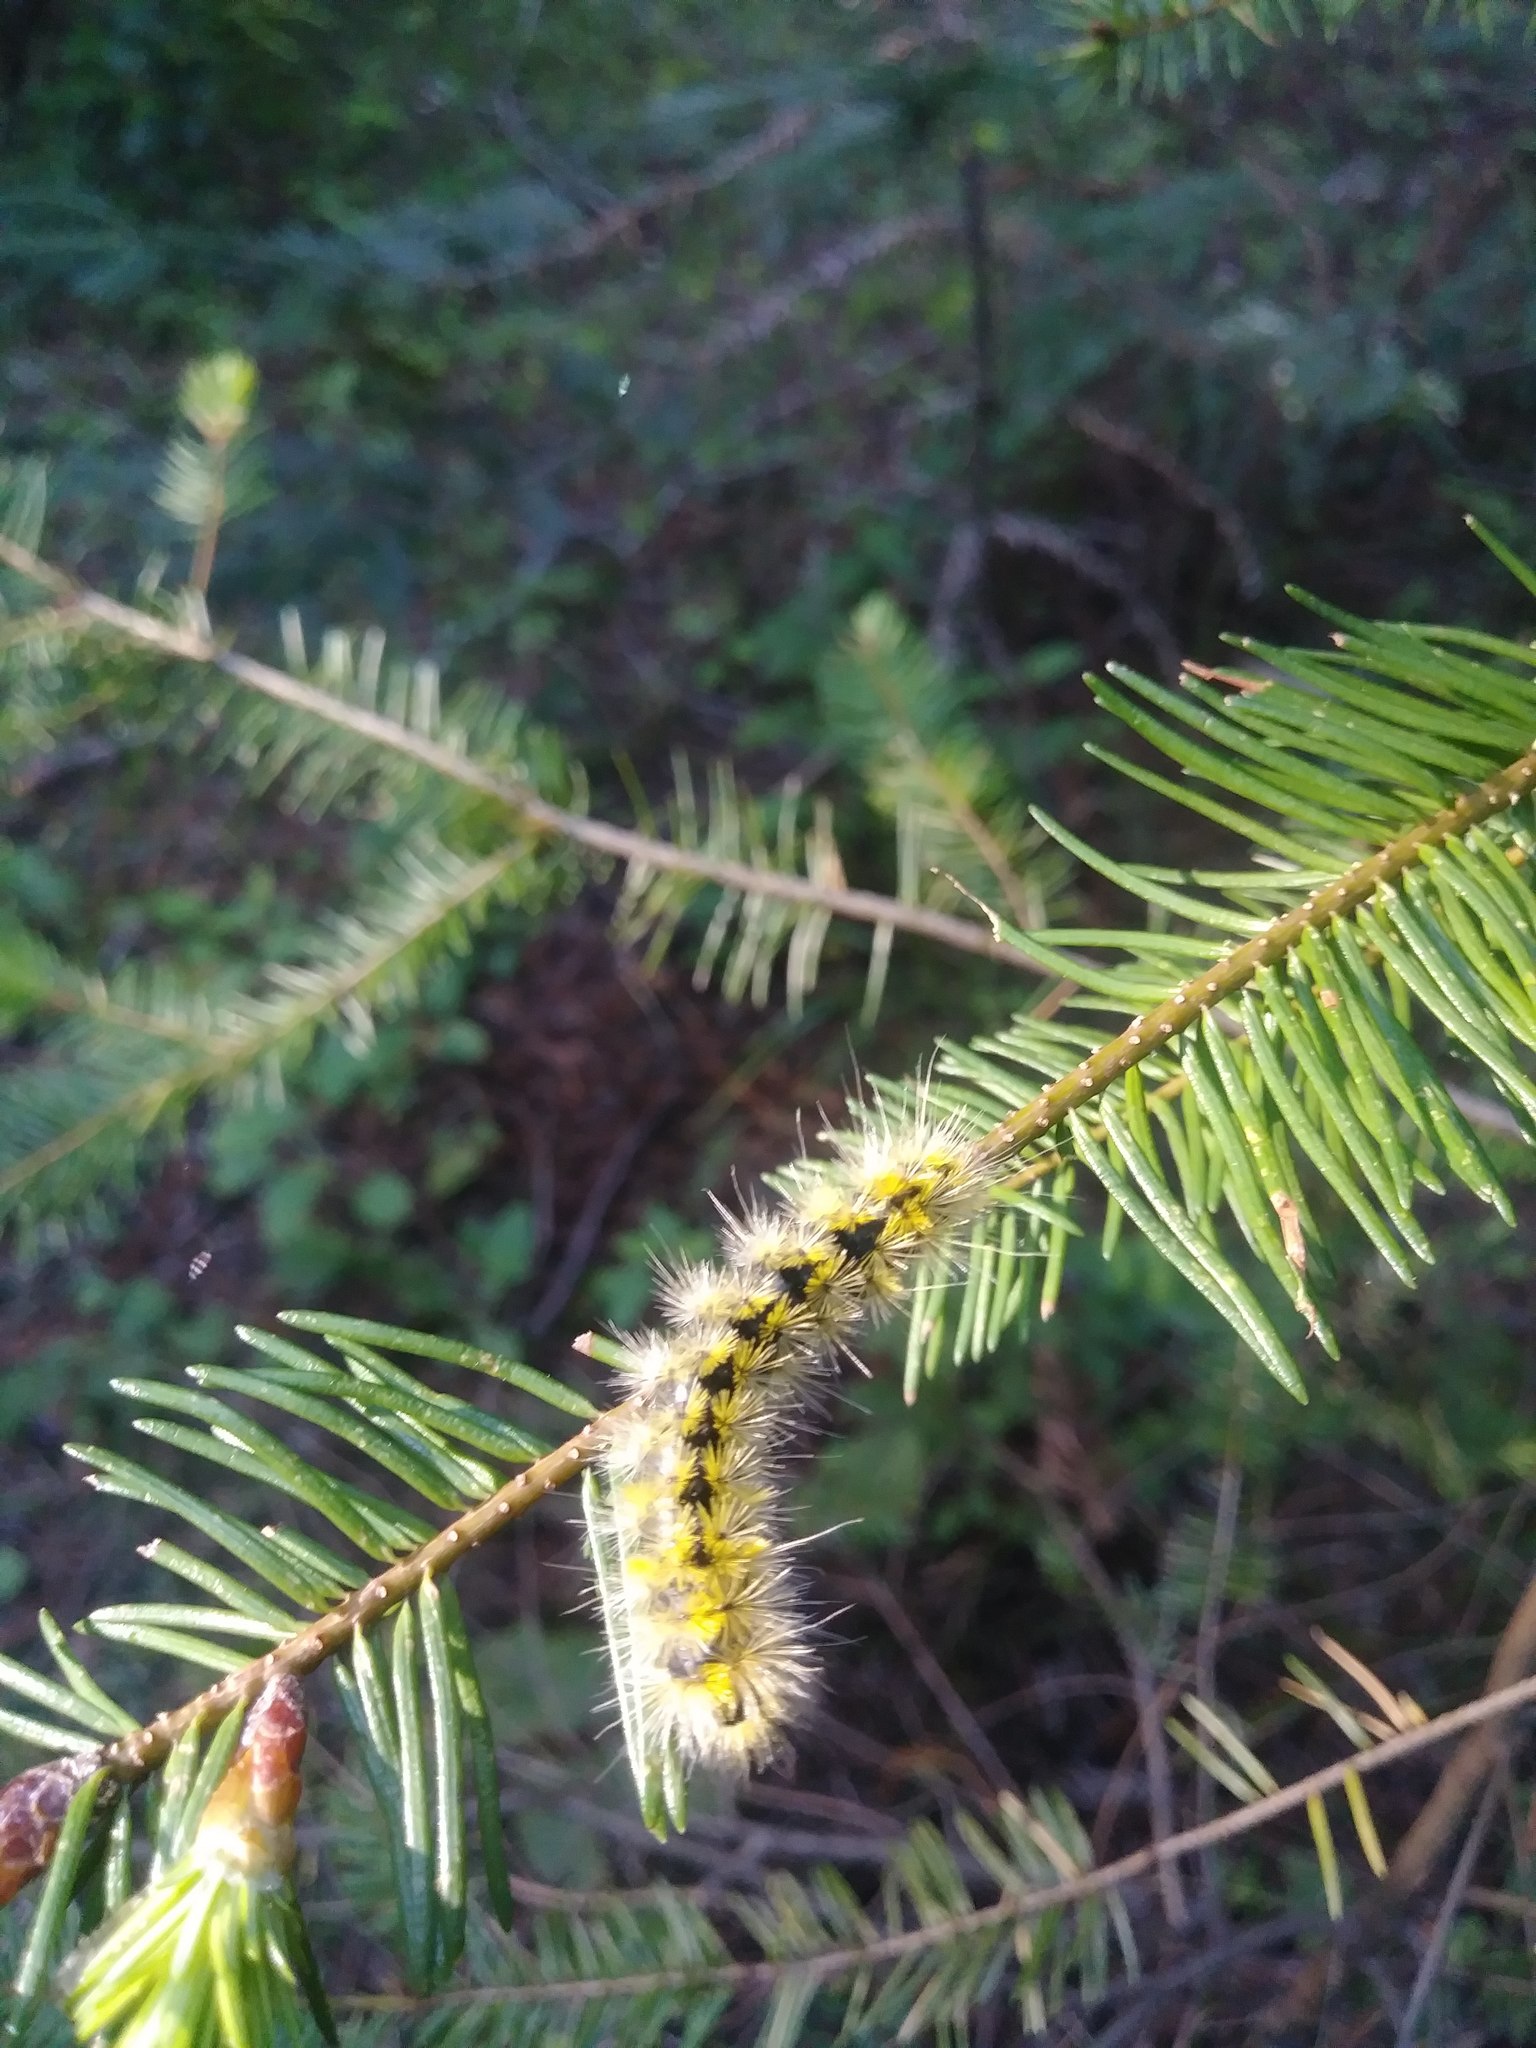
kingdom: Animalia
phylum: Arthropoda
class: Insecta
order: Lepidoptera
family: Erebidae
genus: Lophocampa
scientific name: Lophocampa argentata
